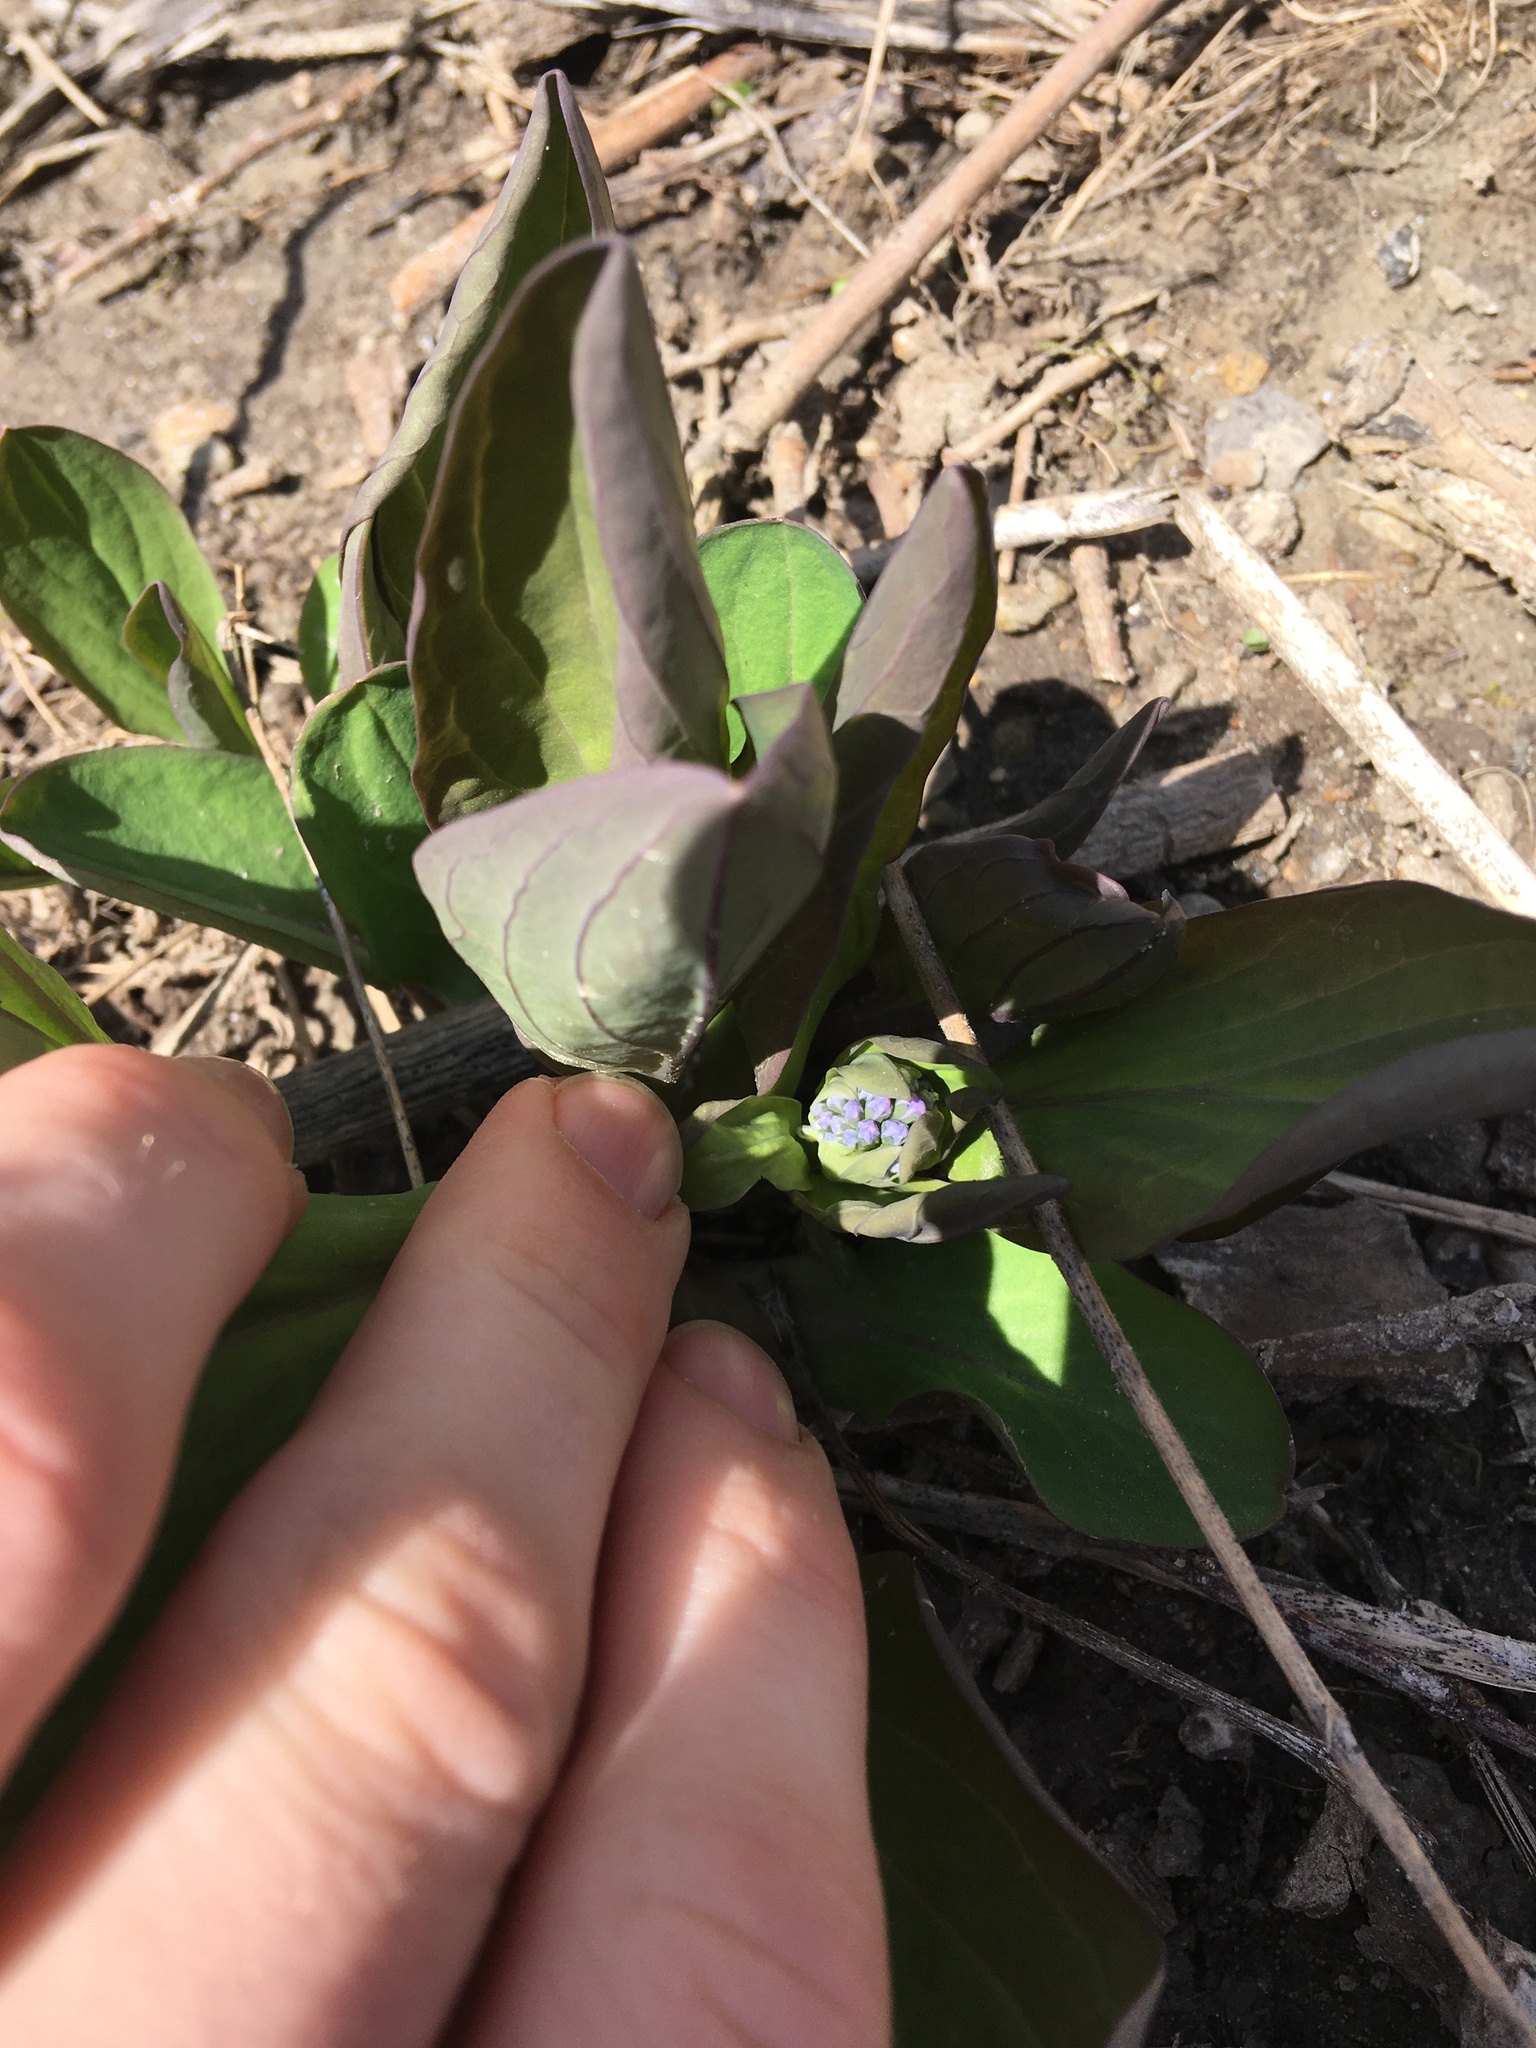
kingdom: Plantae
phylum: Tracheophyta
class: Magnoliopsida
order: Boraginales
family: Boraginaceae
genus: Mertensia
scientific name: Mertensia virginica
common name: Virginia bluebells
